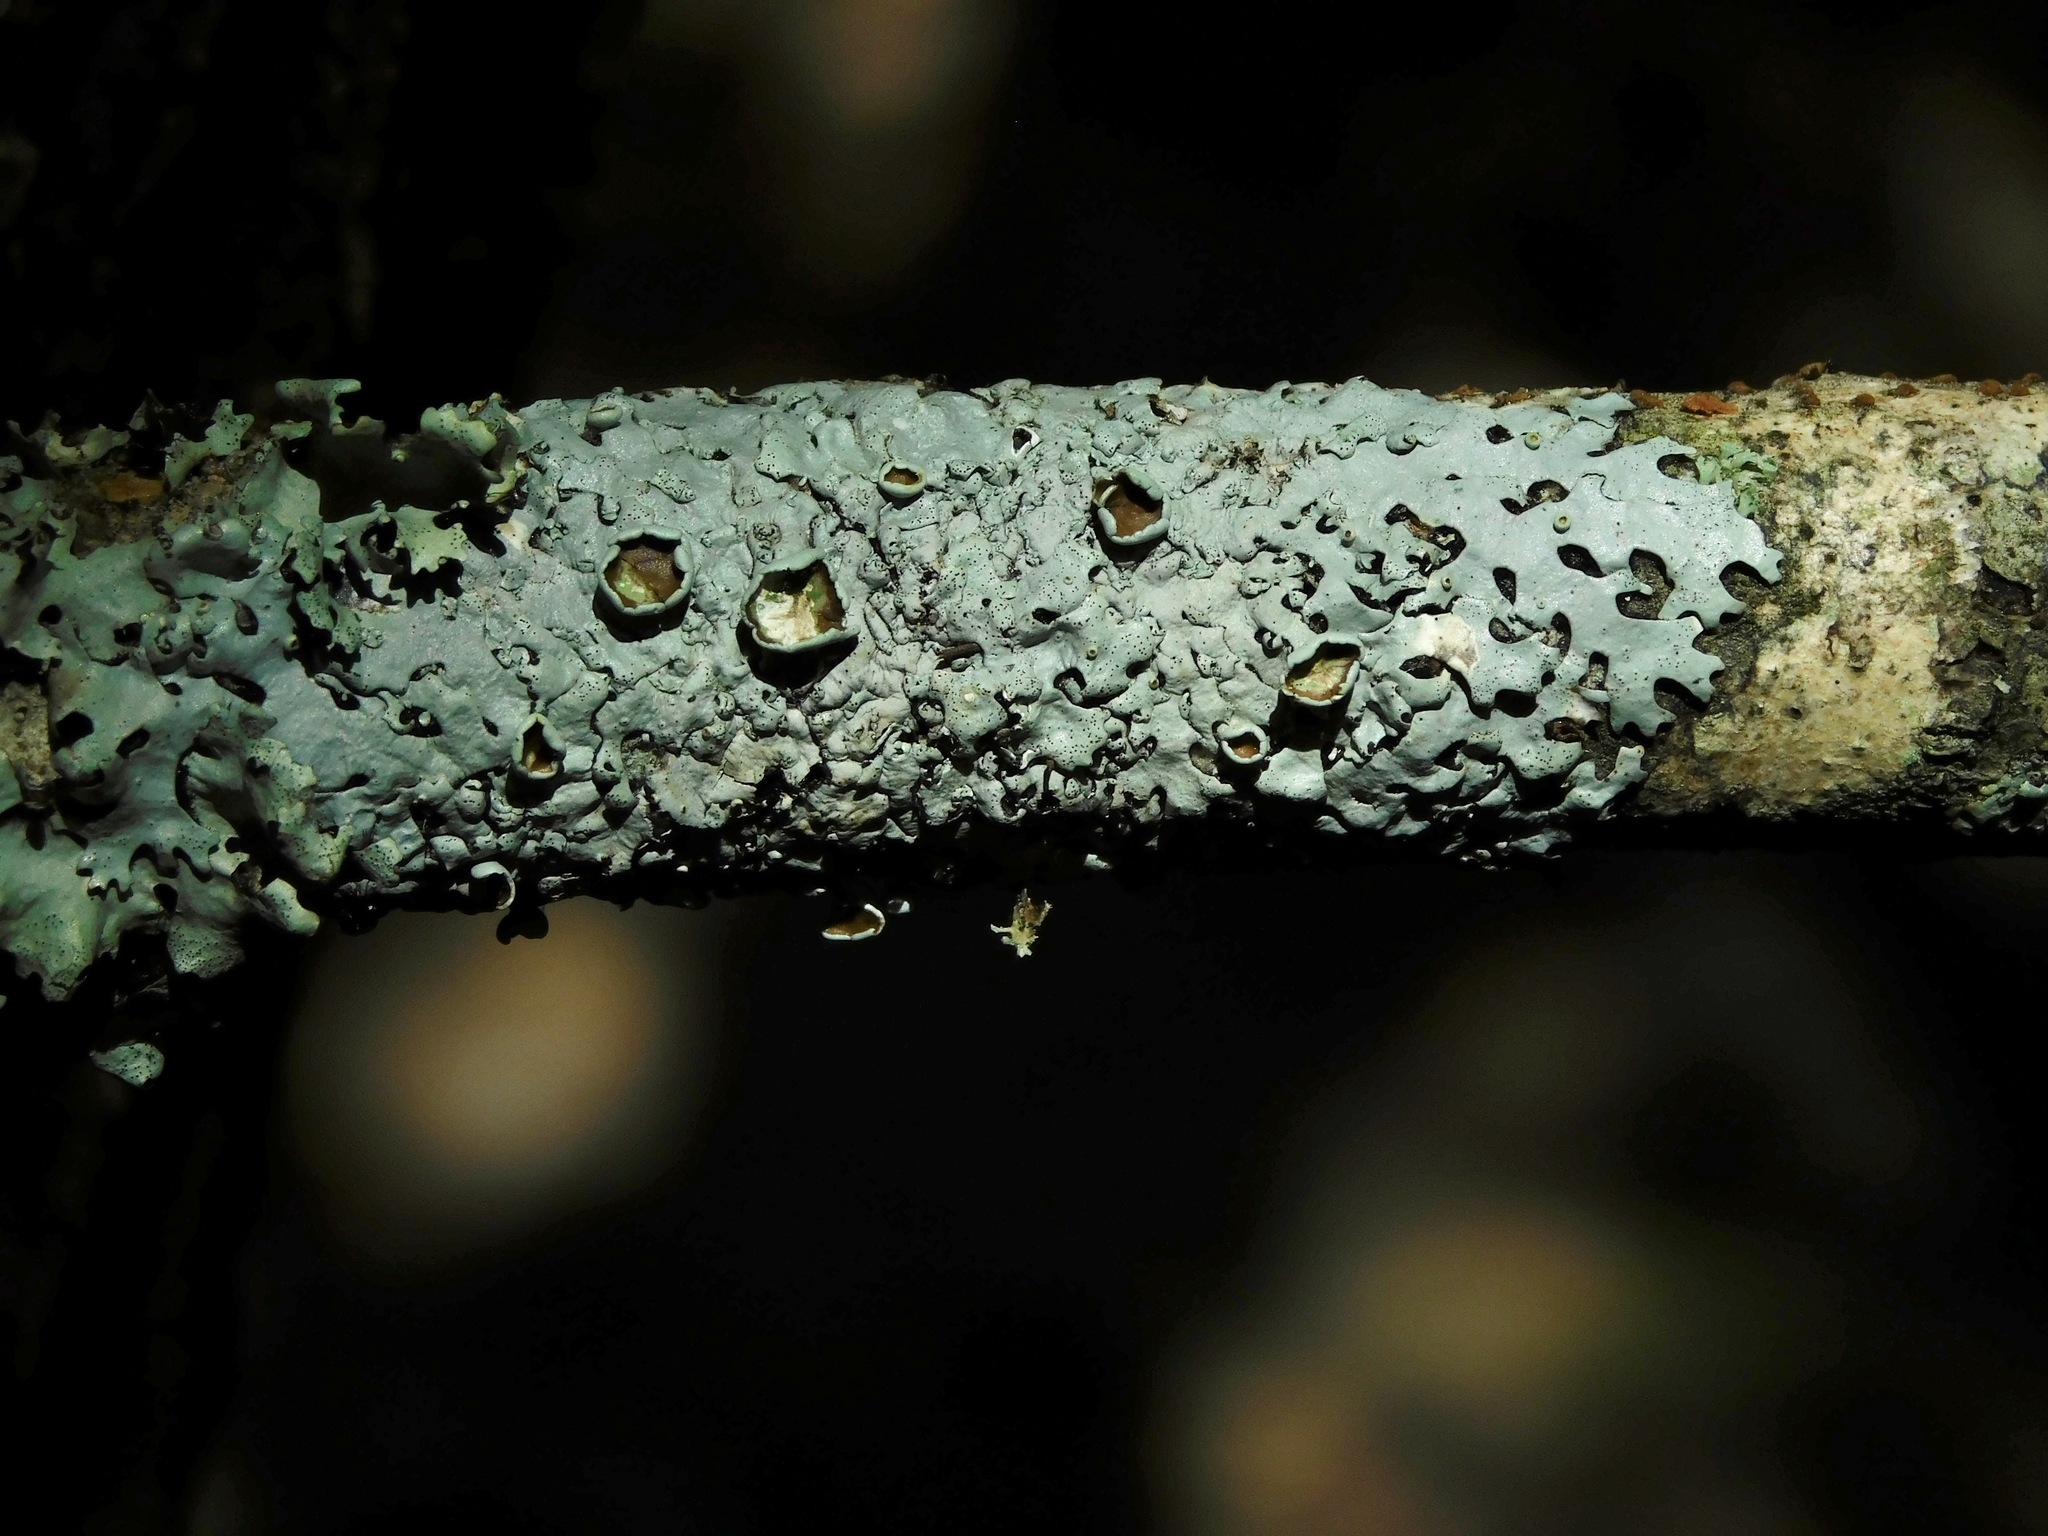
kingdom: Fungi
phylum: Ascomycota
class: Lecanoromycetes
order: Lecanorales
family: Parmeliaceae
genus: Hypotrachyna
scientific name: Hypotrachyna livida
